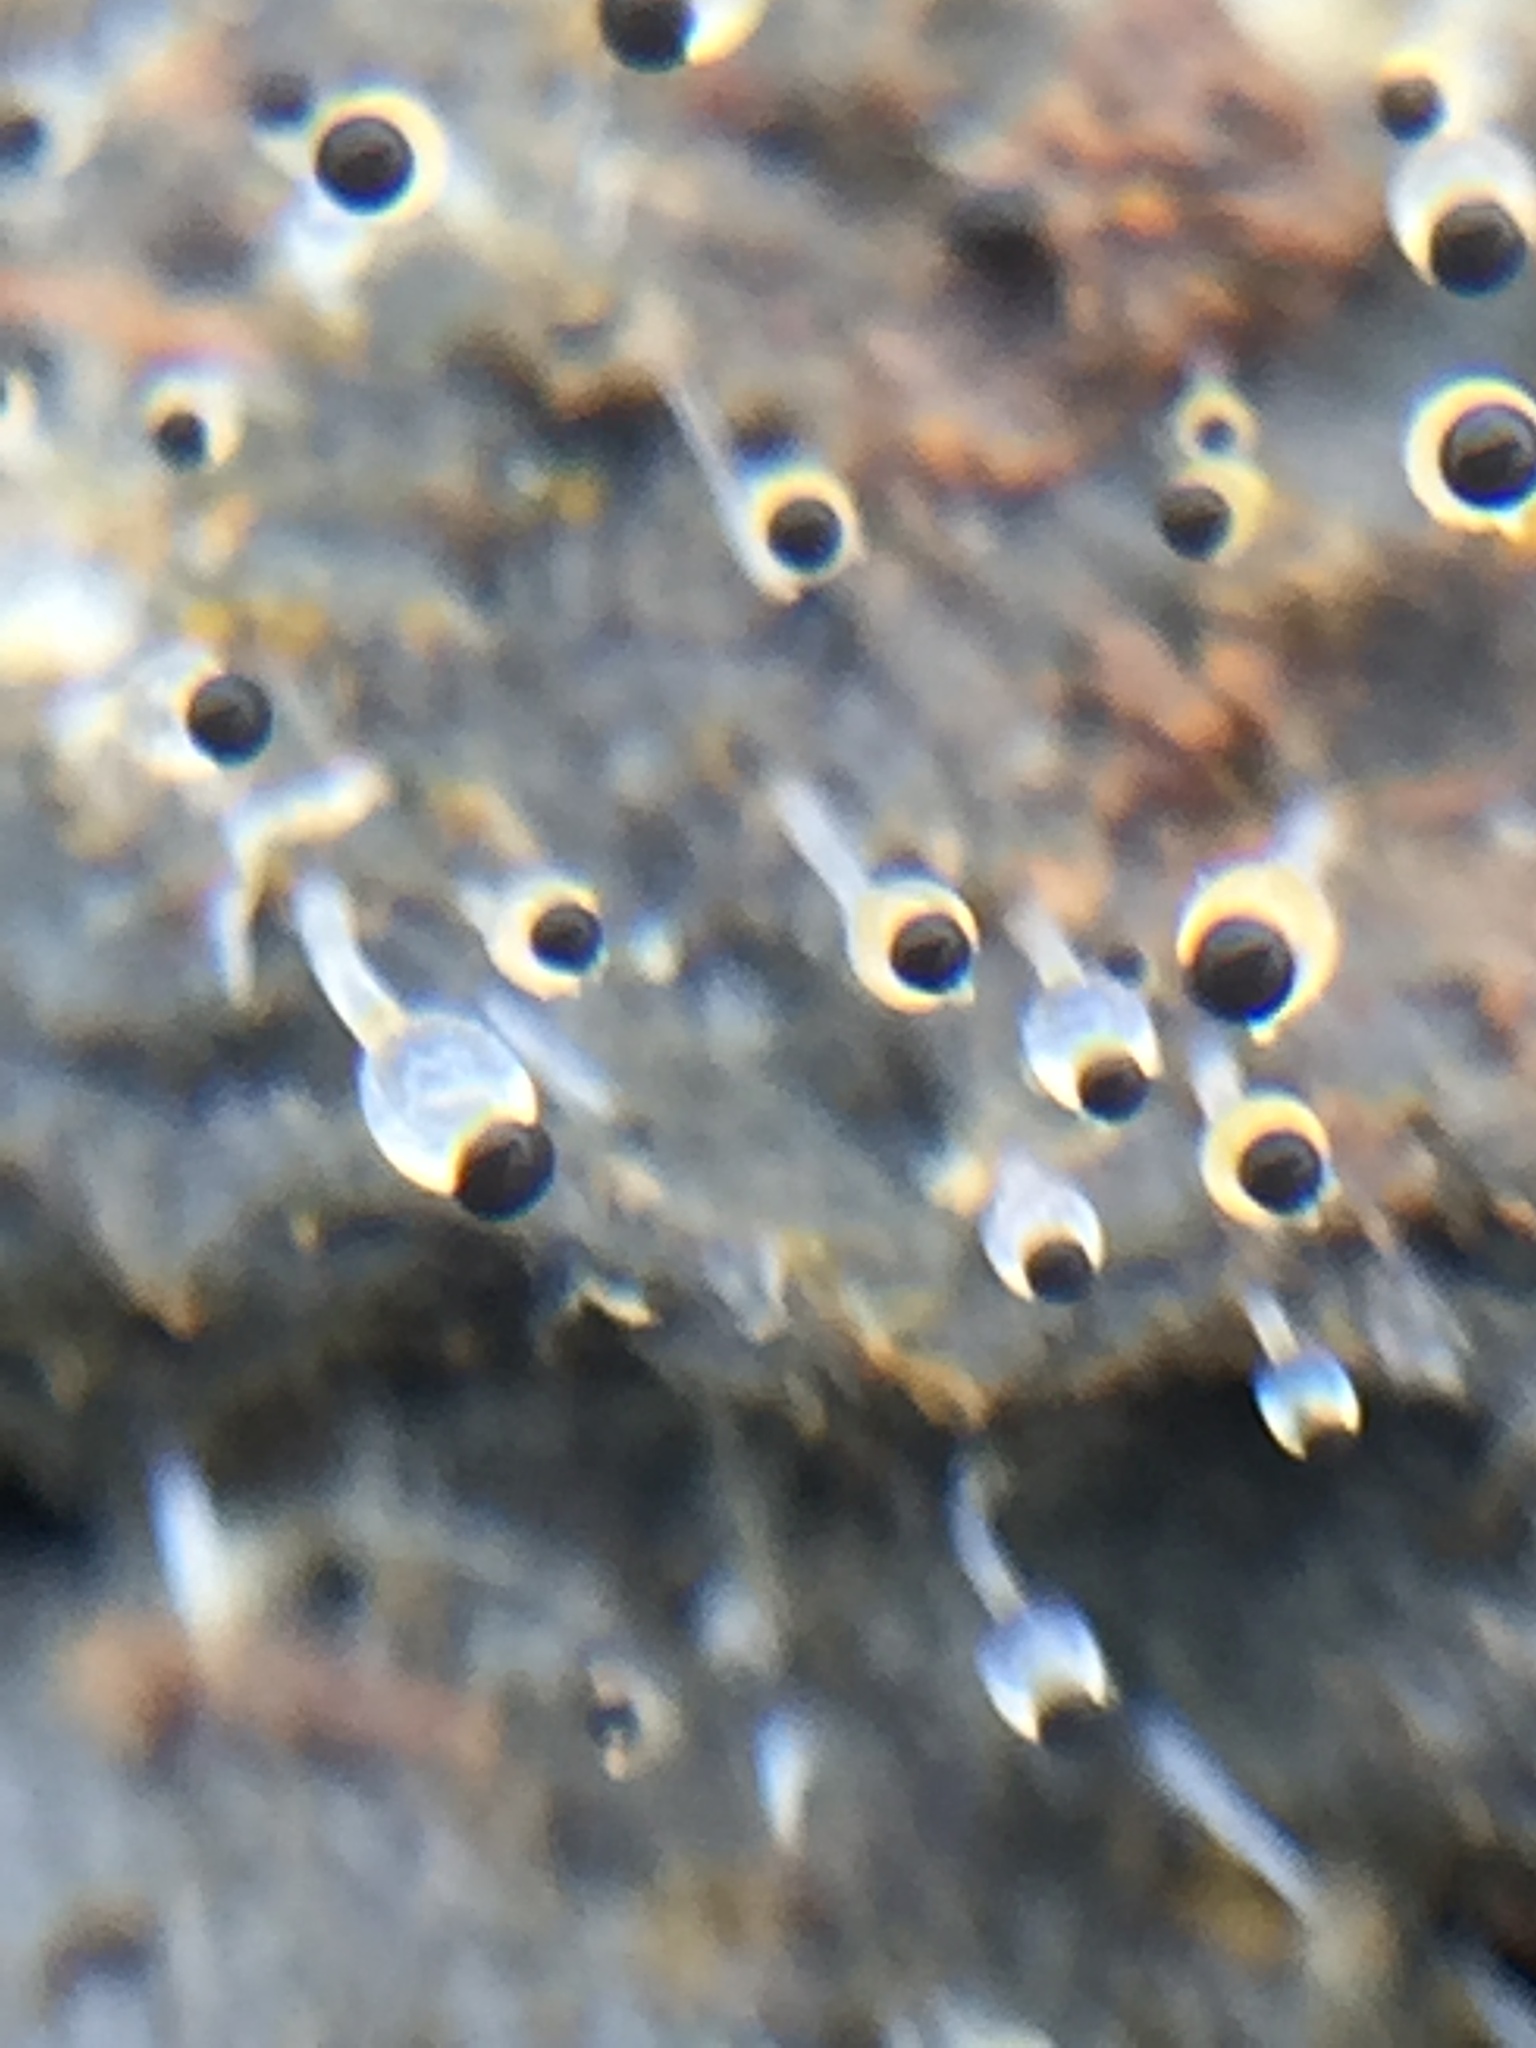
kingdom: Fungi
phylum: Mucoromycota
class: Mucoromycetes
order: Mucorales
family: Pilobolaceae
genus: Pilobolus
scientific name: Pilobolus
